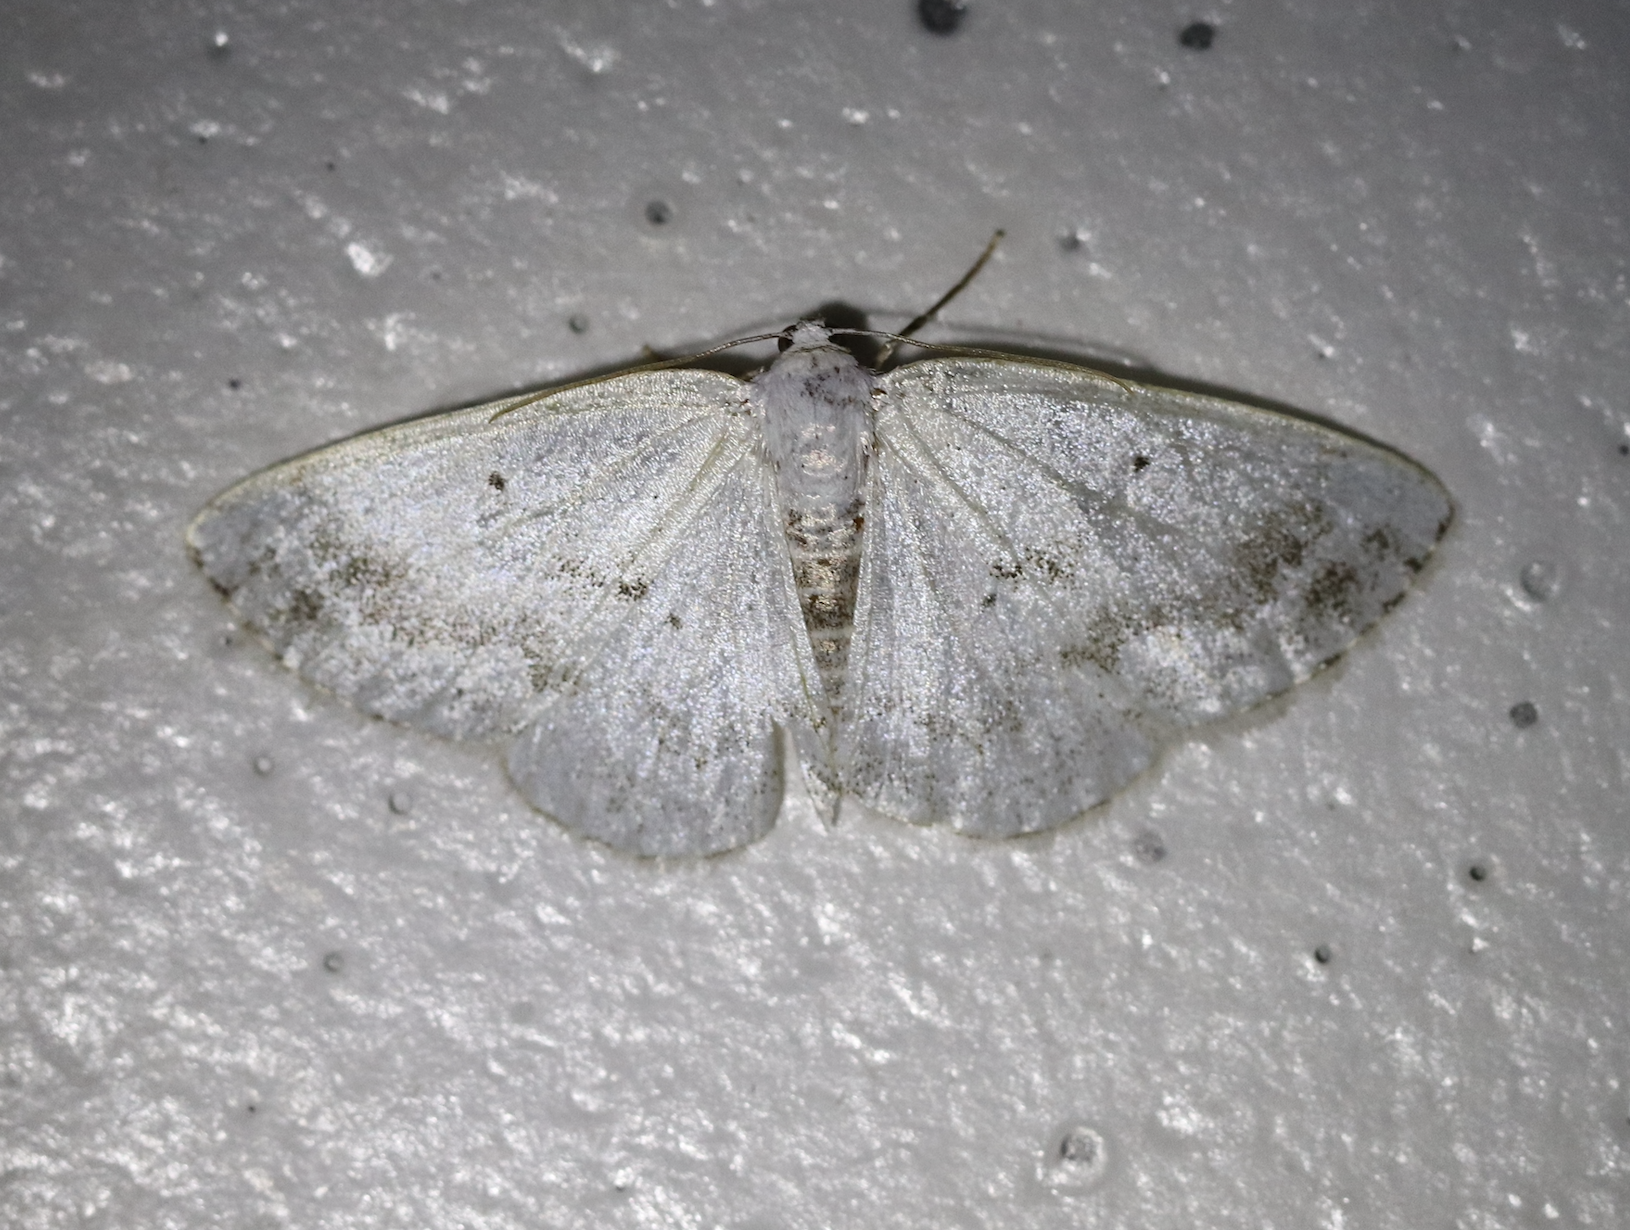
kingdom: Animalia
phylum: Arthropoda
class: Insecta
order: Lepidoptera
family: Geometridae
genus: Lomographa
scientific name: Lomographa temerata
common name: Clouded silver
